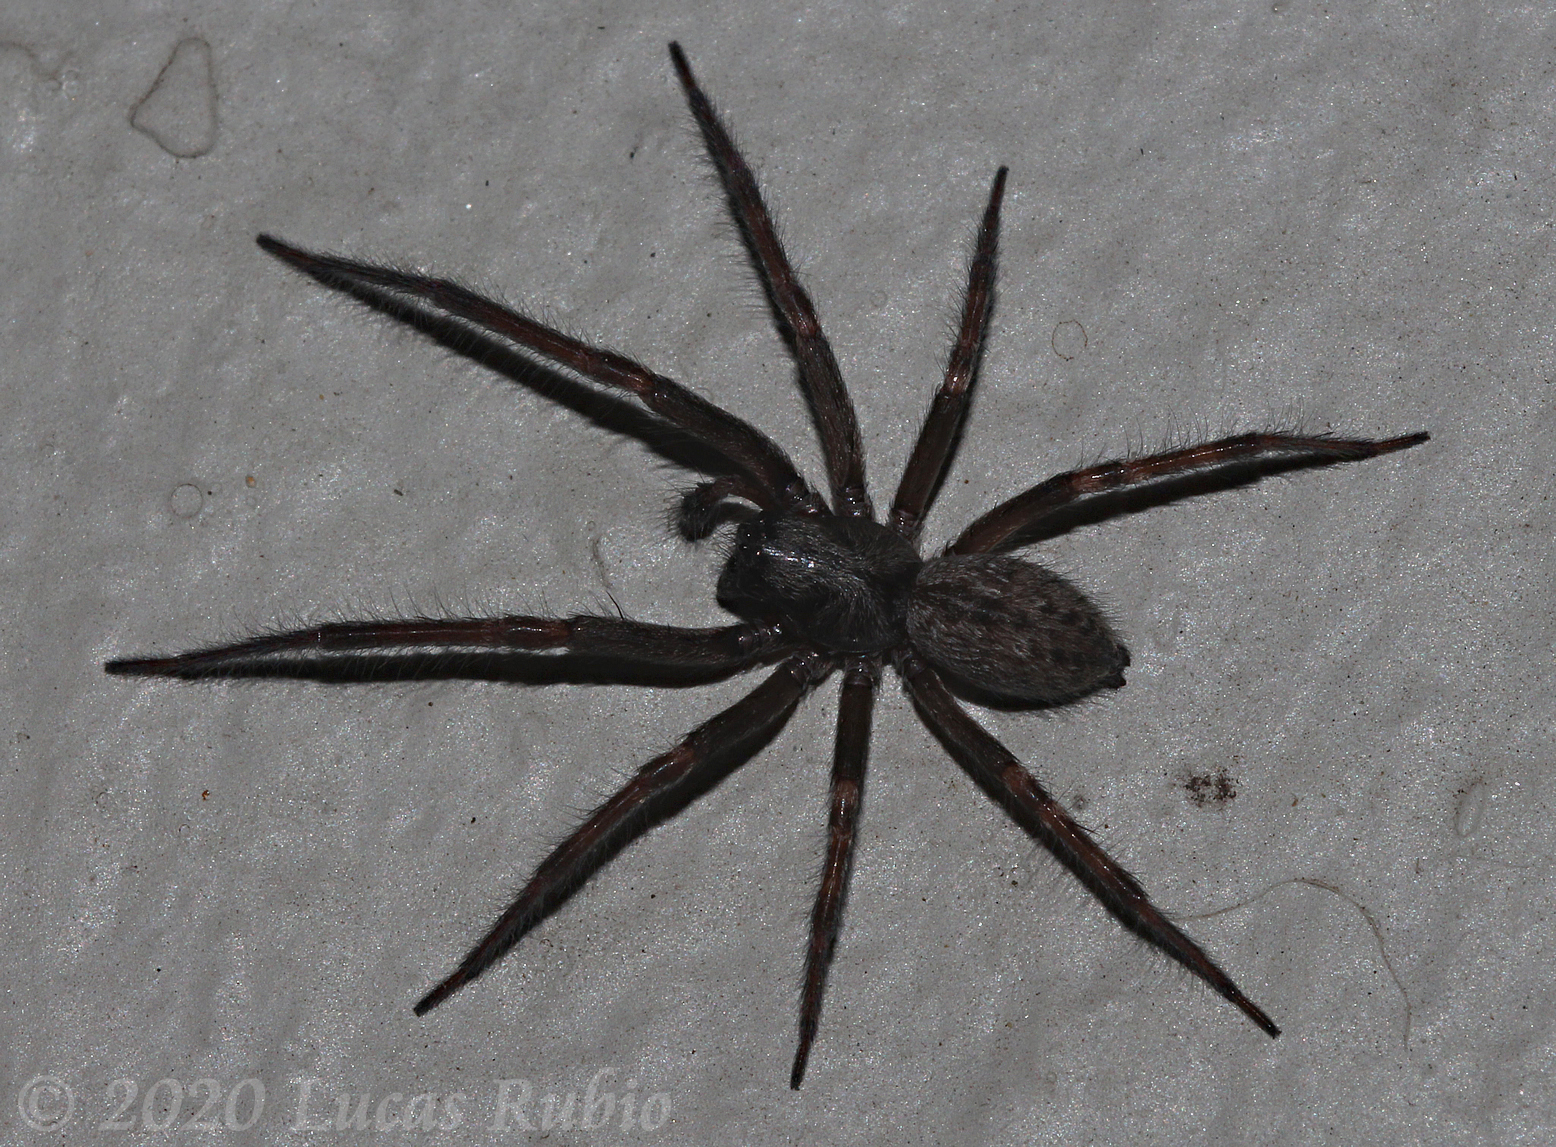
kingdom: Animalia
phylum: Arthropoda
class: Arachnida
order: Araneae
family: Desidae
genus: Badumna
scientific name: Badumna longinqua
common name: Gray house spider
